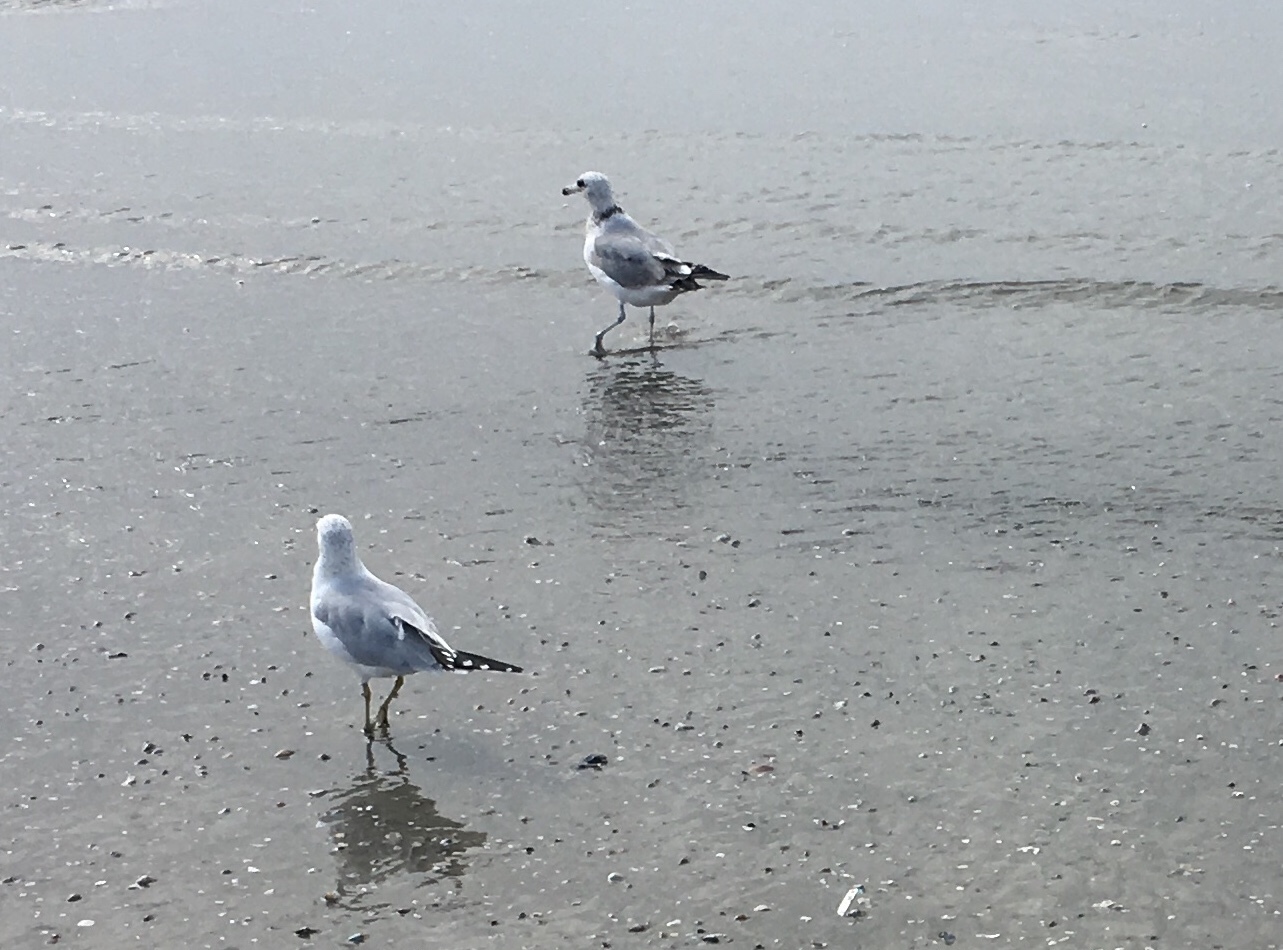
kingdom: Animalia
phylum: Chordata
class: Aves
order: Charadriiformes
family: Laridae
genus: Larus
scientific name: Larus delawarensis
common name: Ring-billed gull
